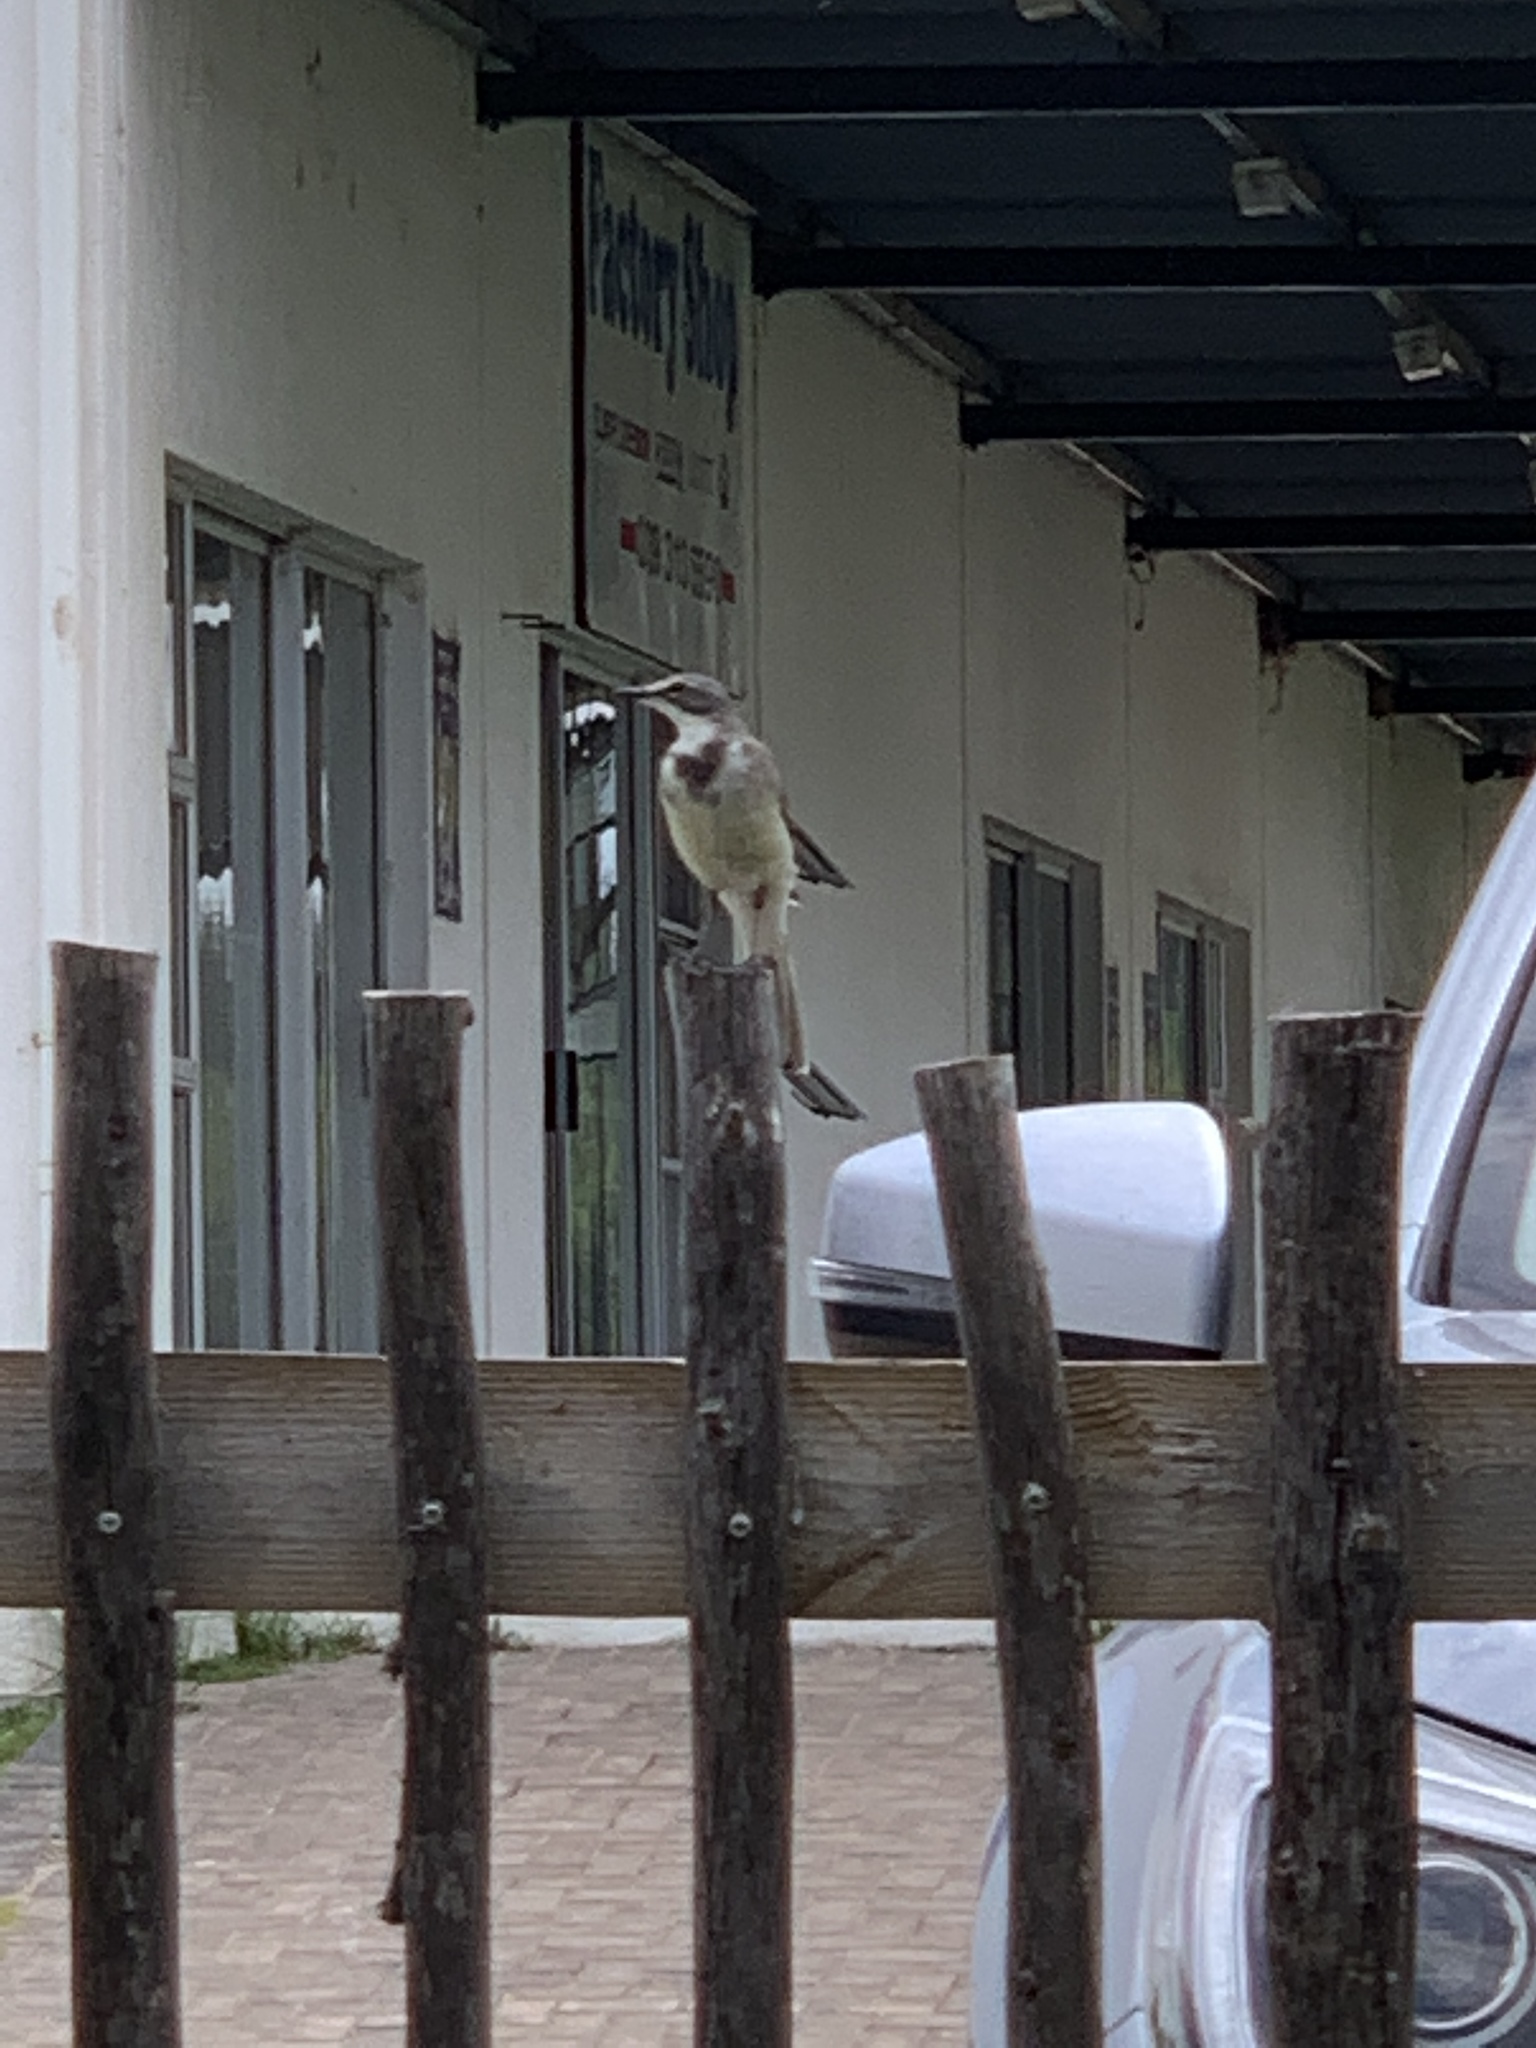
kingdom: Animalia
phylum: Chordata
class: Aves
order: Passeriformes
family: Motacillidae
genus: Motacilla
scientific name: Motacilla capensis
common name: Cape wagtail
